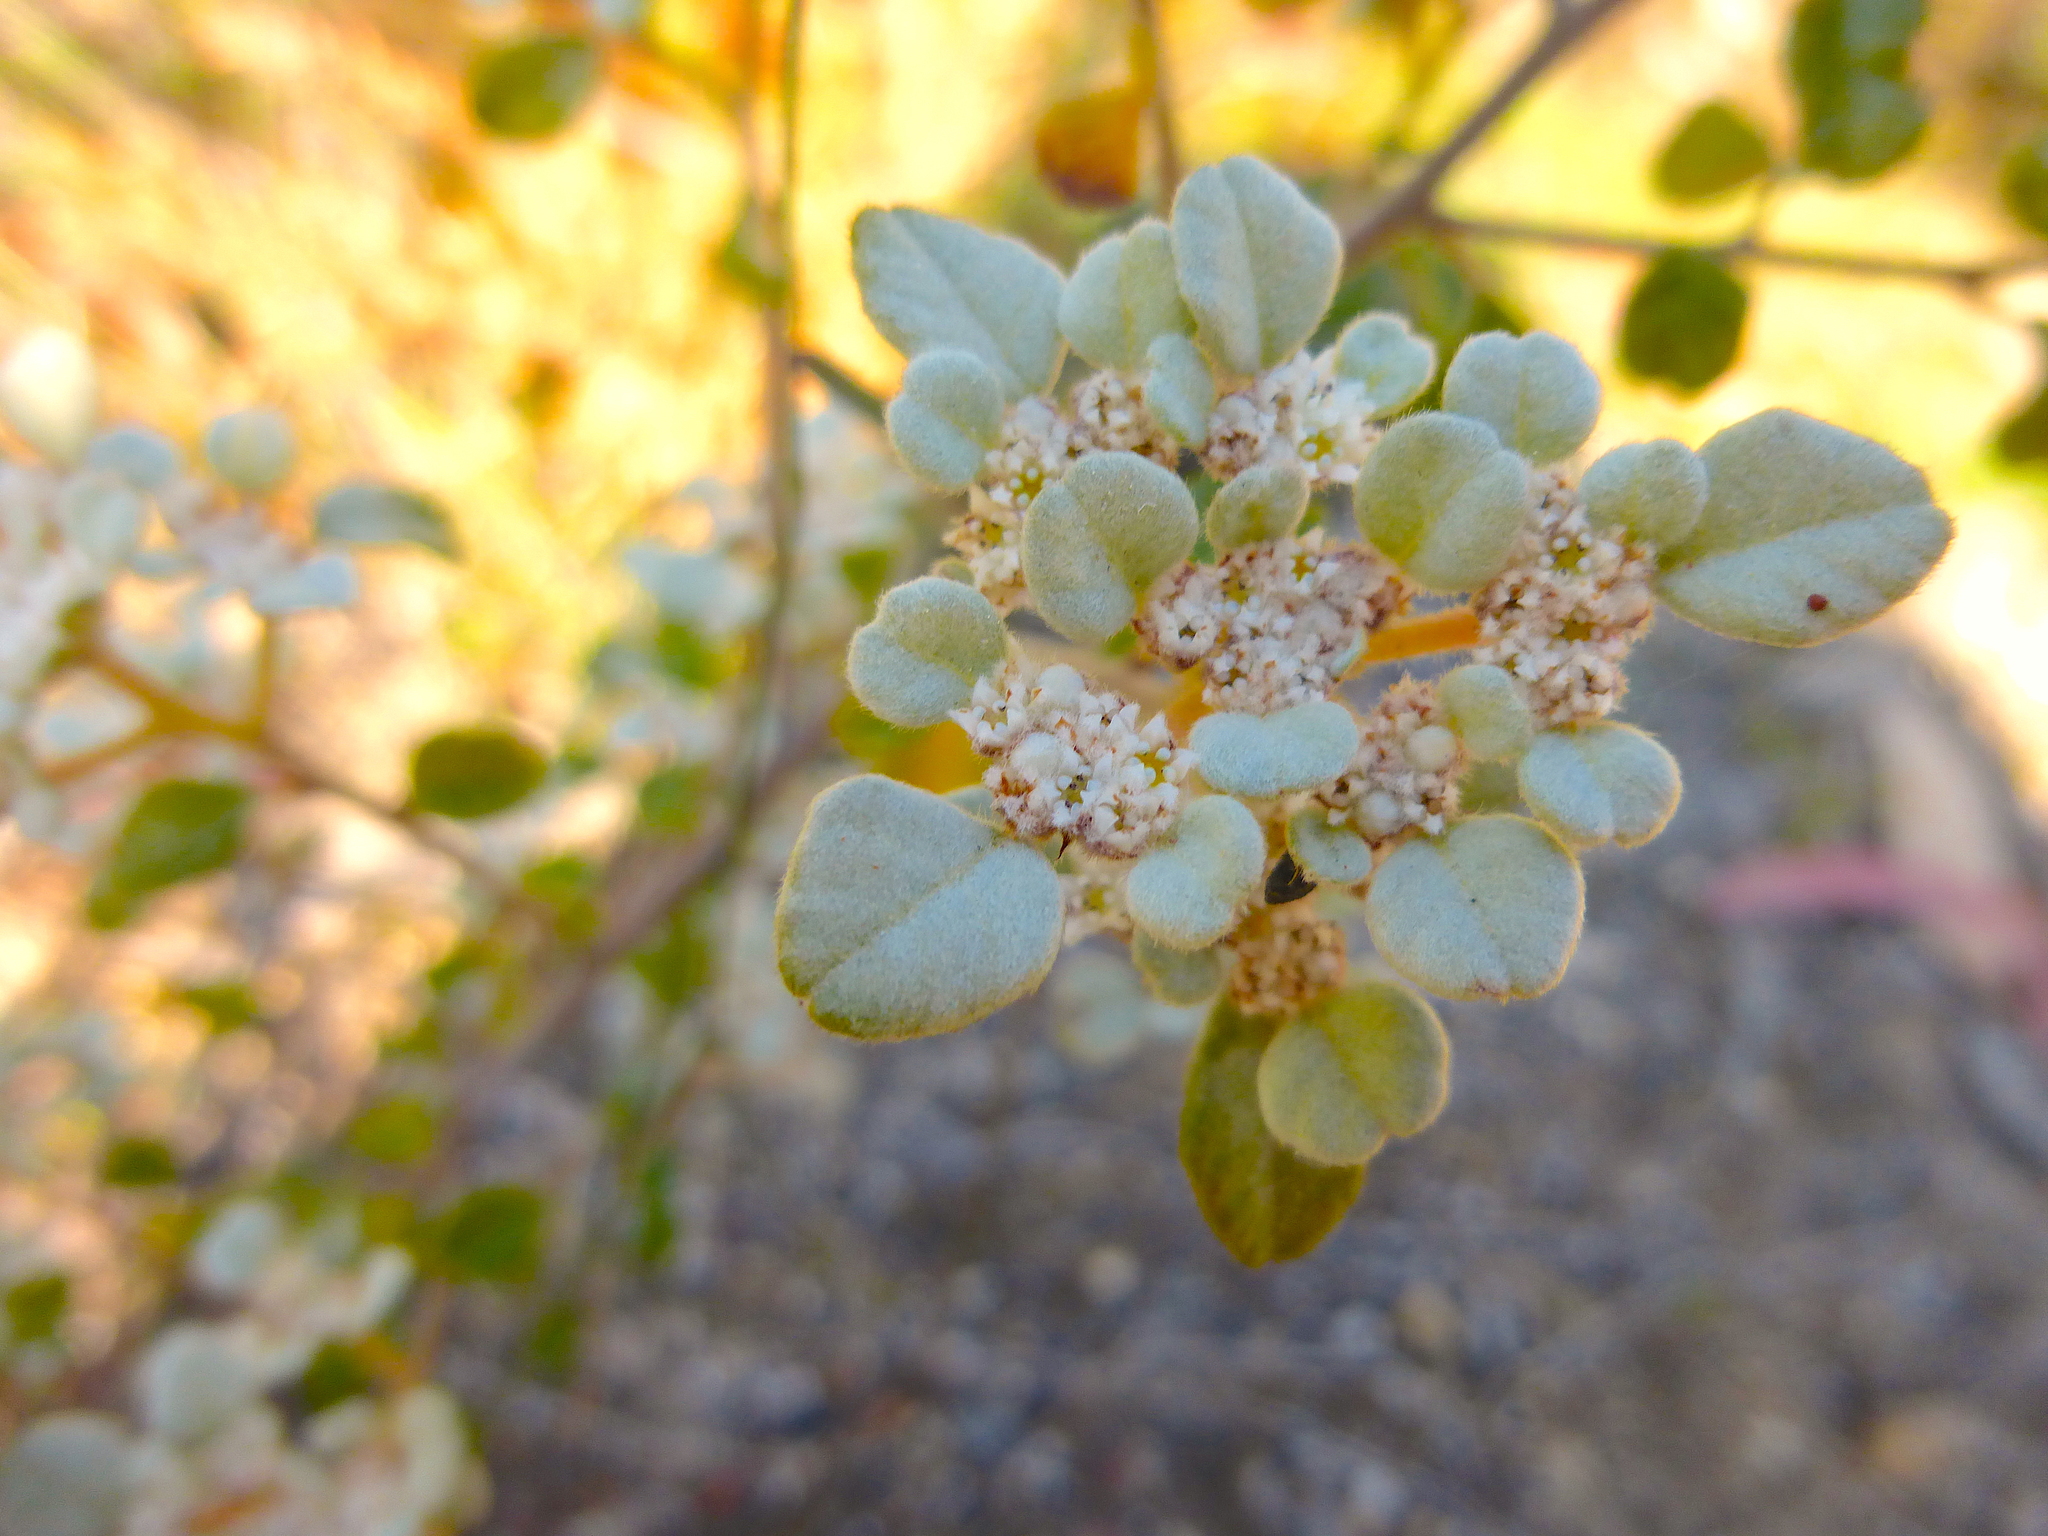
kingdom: Plantae
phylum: Tracheophyta
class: Magnoliopsida
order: Rosales
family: Rhamnaceae
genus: Spyridium
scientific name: Spyridium parvifolium
